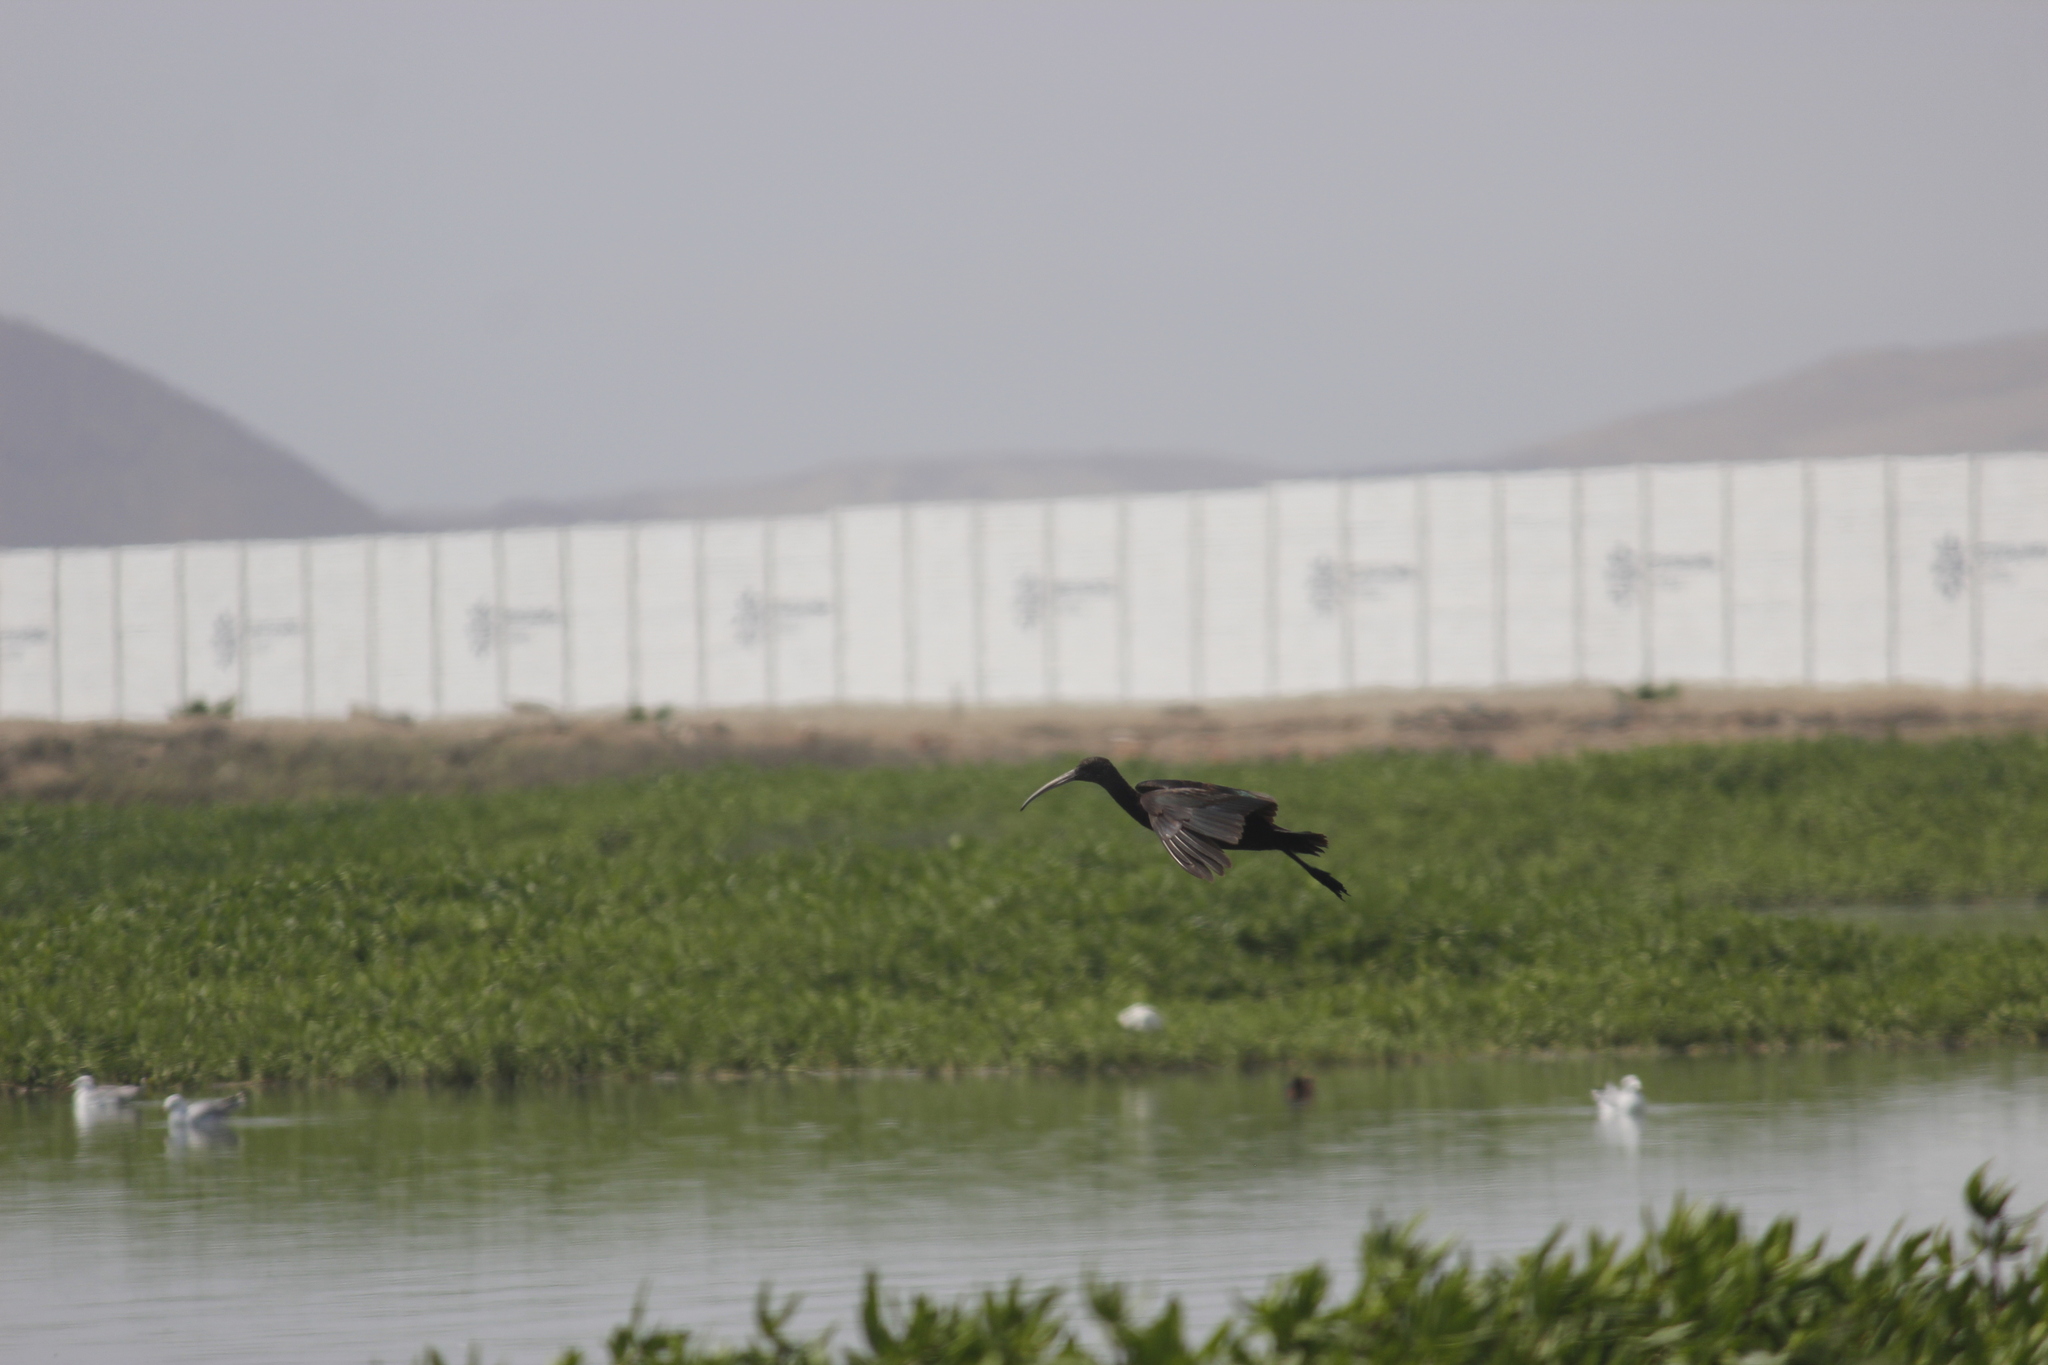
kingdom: Animalia
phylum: Chordata
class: Aves
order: Pelecaniformes
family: Threskiornithidae
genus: Plegadis
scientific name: Plegadis ridgwayi
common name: Puna ibis
